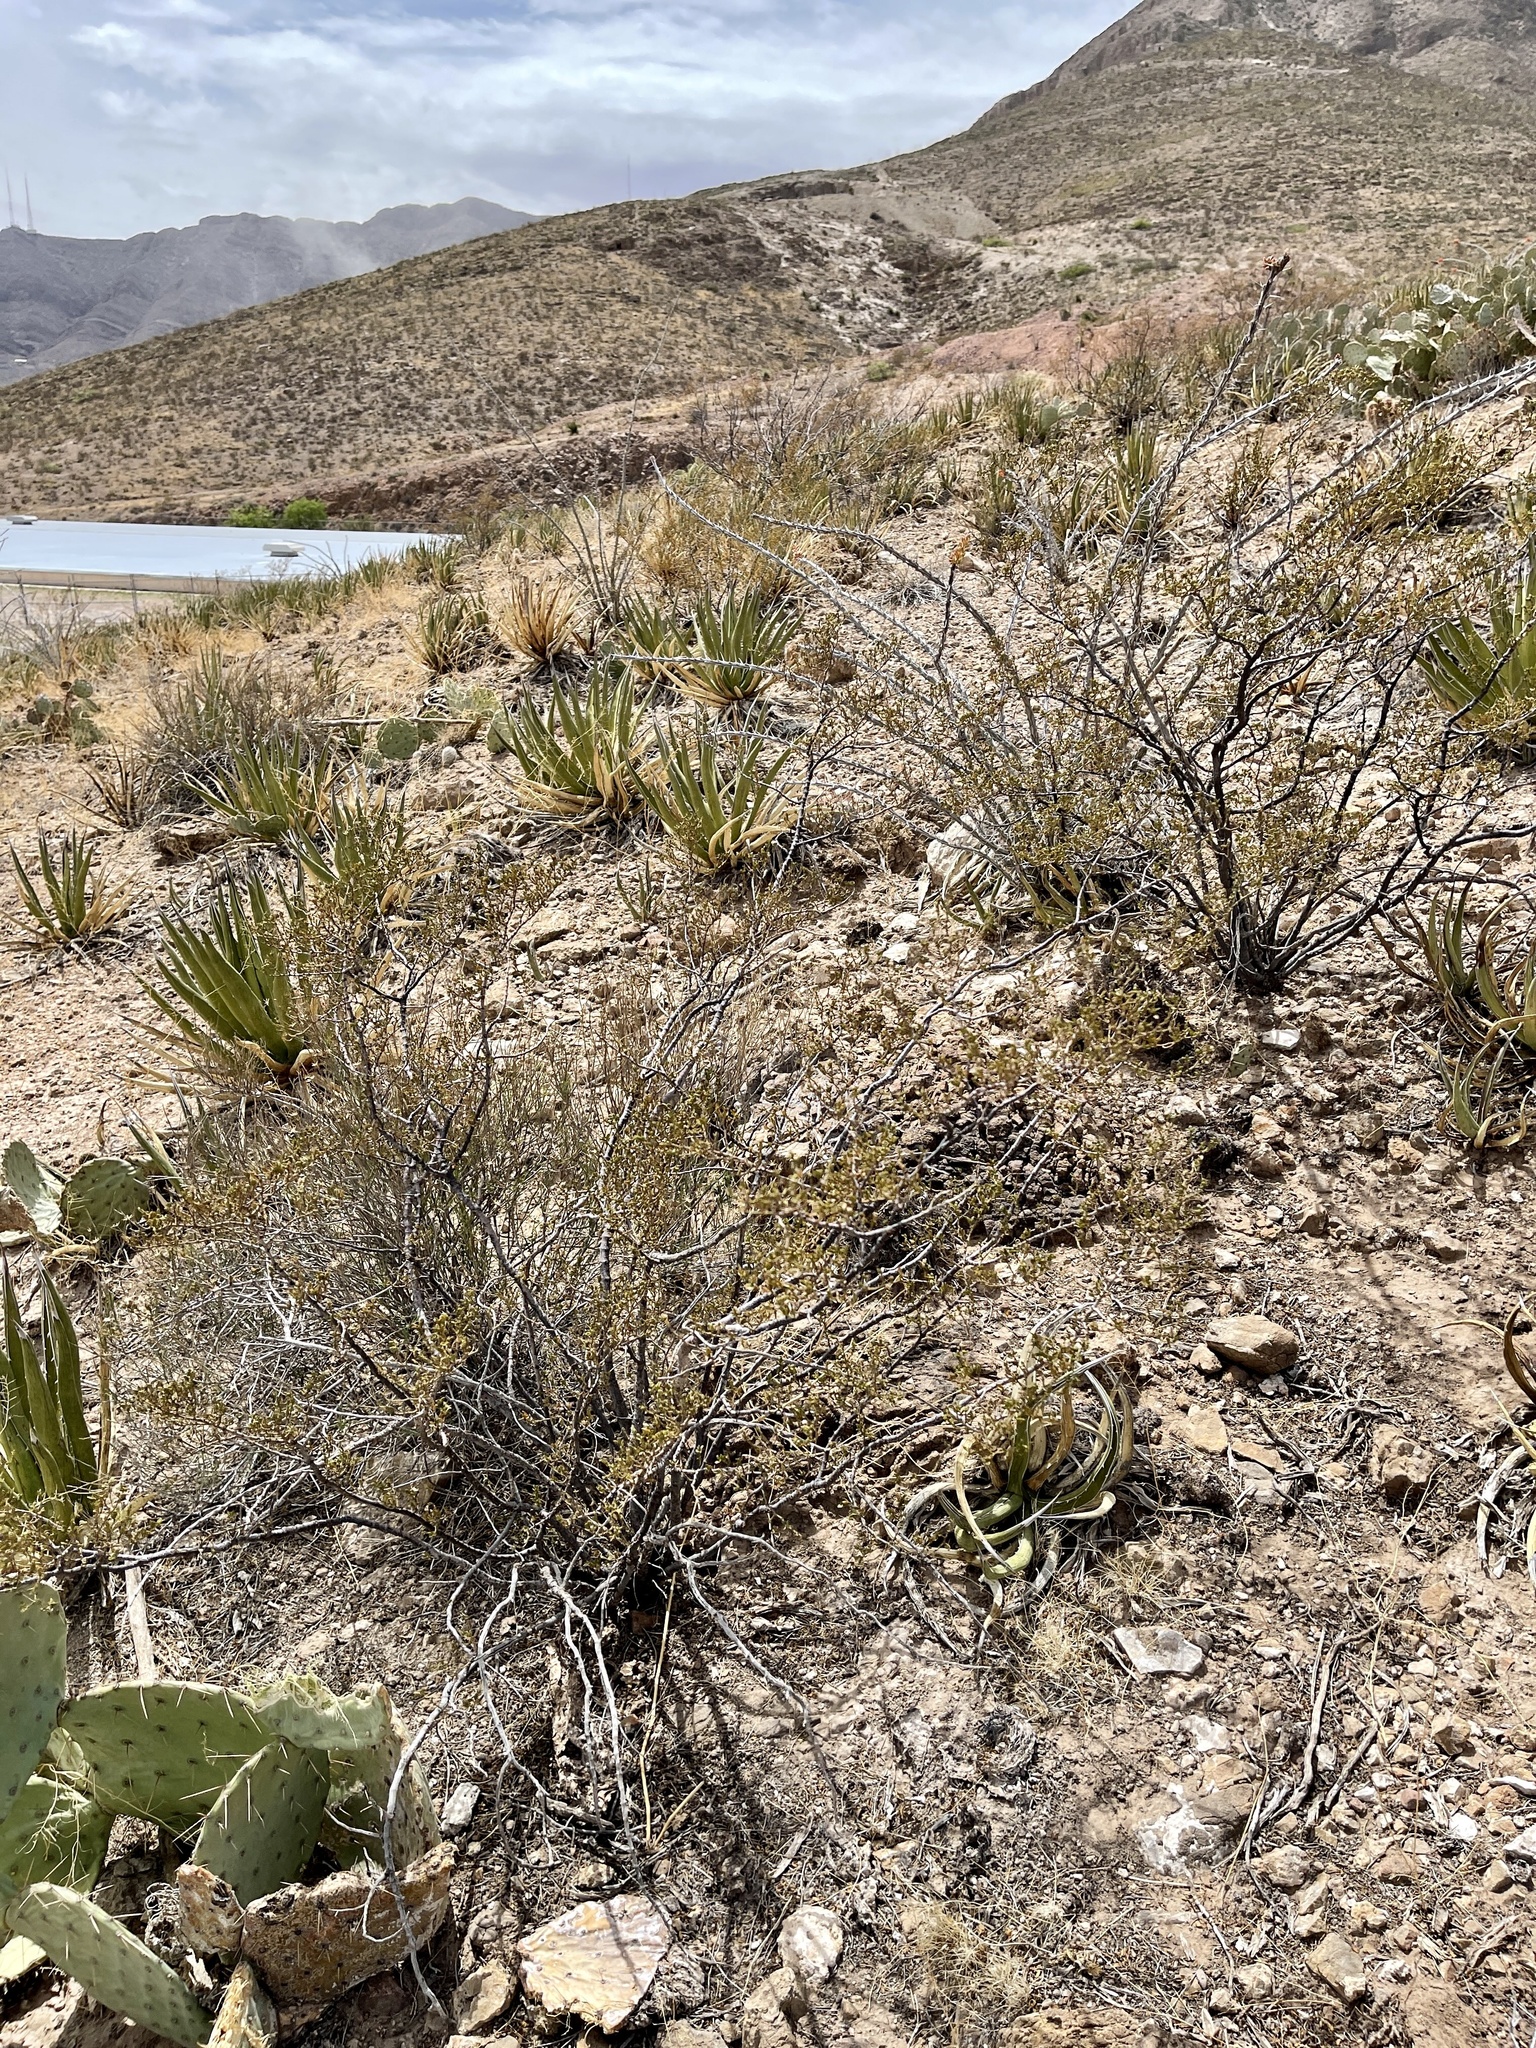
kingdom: Plantae
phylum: Tracheophyta
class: Magnoliopsida
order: Zygophyllales
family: Zygophyllaceae
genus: Larrea
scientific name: Larrea tridentata
